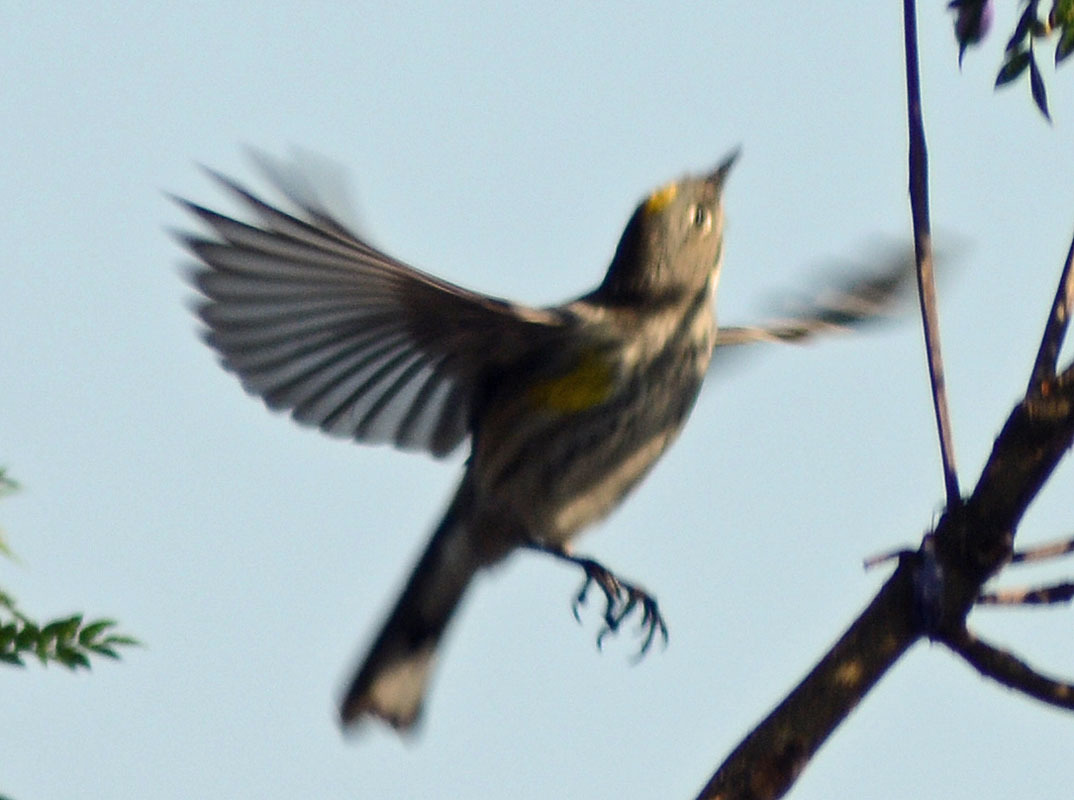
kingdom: Animalia
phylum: Chordata
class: Aves
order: Passeriformes
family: Parulidae
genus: Setophaga
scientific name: Setophaga coronata
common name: Myrtle warbler
